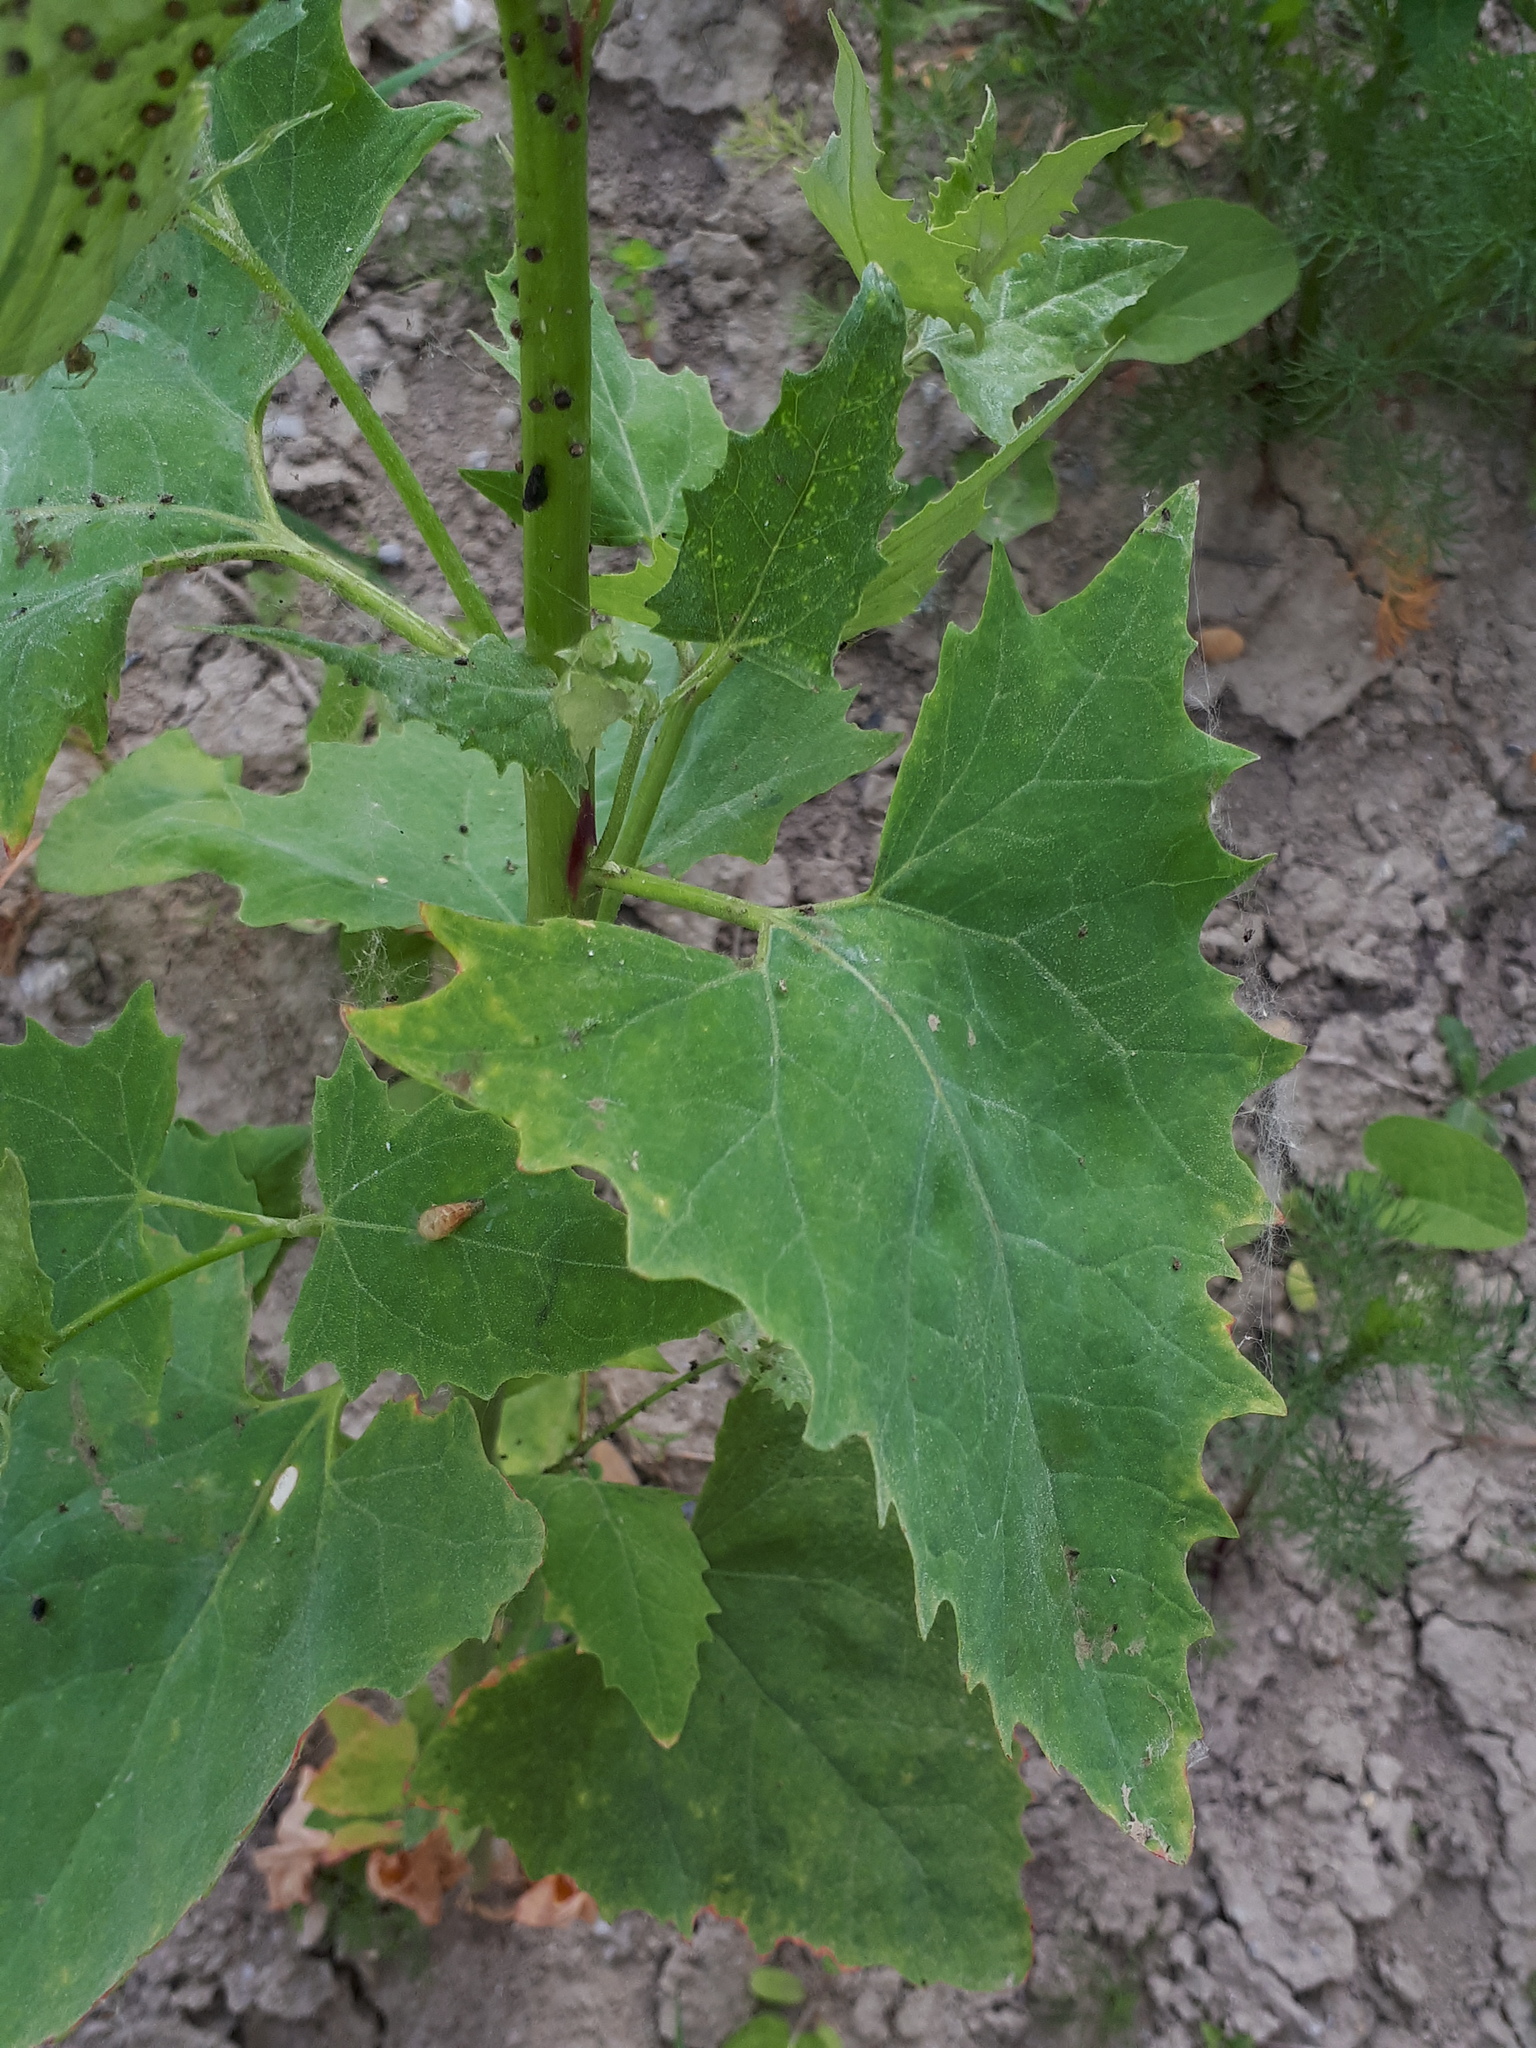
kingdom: Plantae
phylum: Tracheophyta
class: Magnoliopsida
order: Caryophyllales
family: Amaranthaceae
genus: Atriplex
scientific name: Atriplex sagittata
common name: Purple orache
